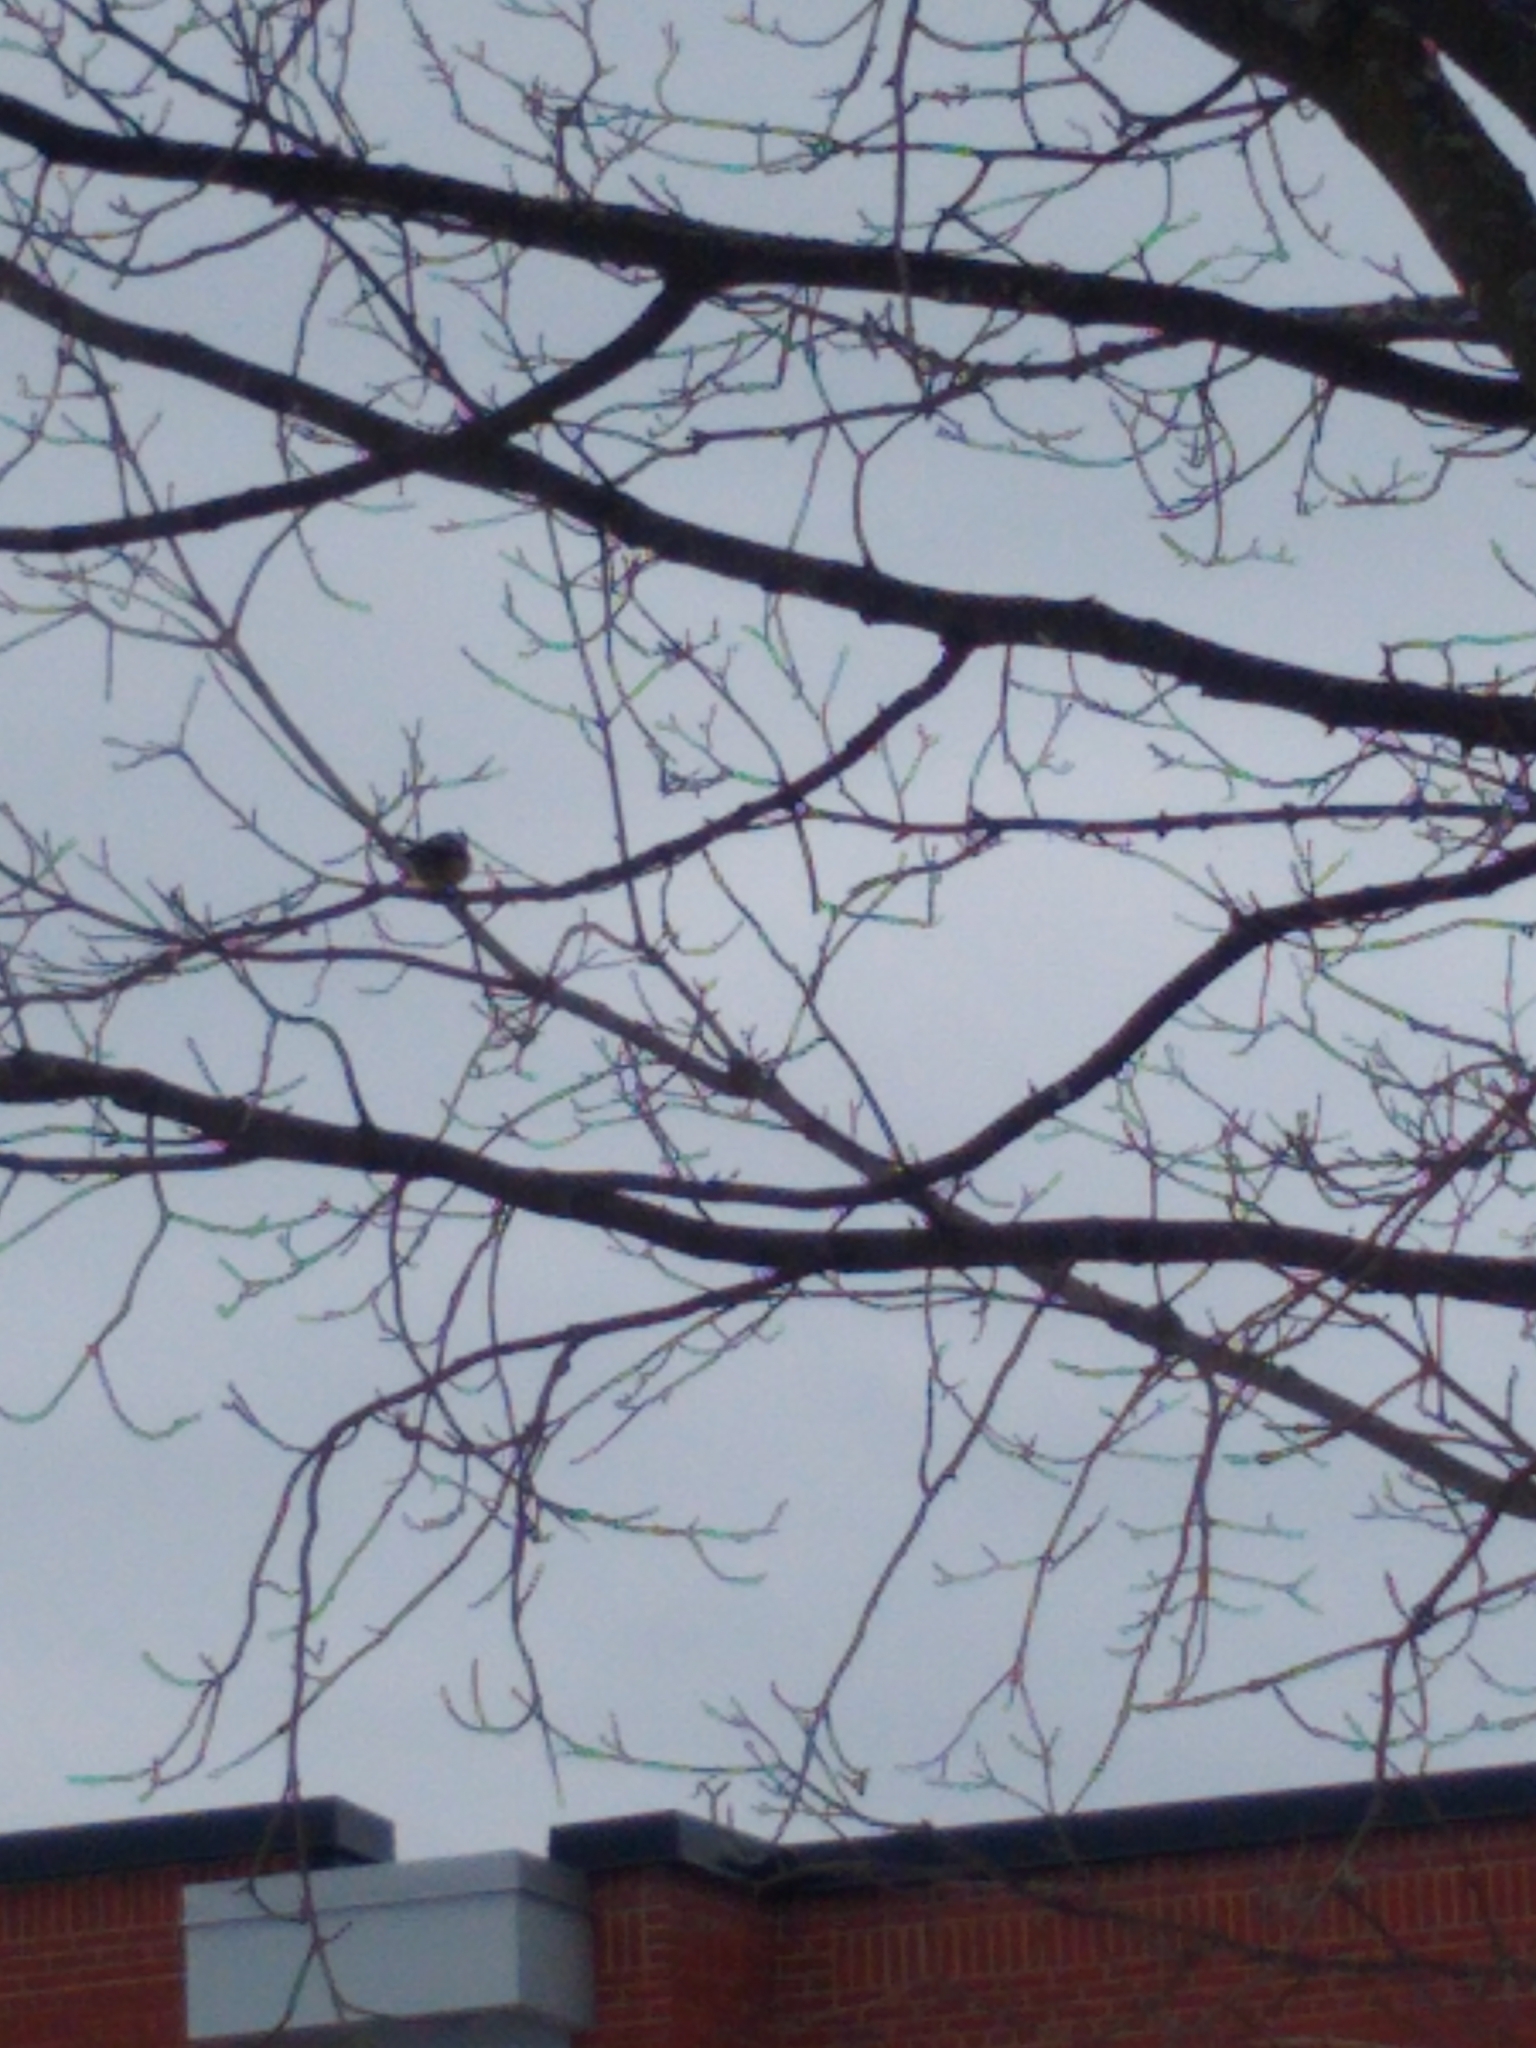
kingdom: Animalia
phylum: Chordata
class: Aves
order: Passeriformes
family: Paridae
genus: Poecile
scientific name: Poecile atricapillus
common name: Black-capped chickadee
